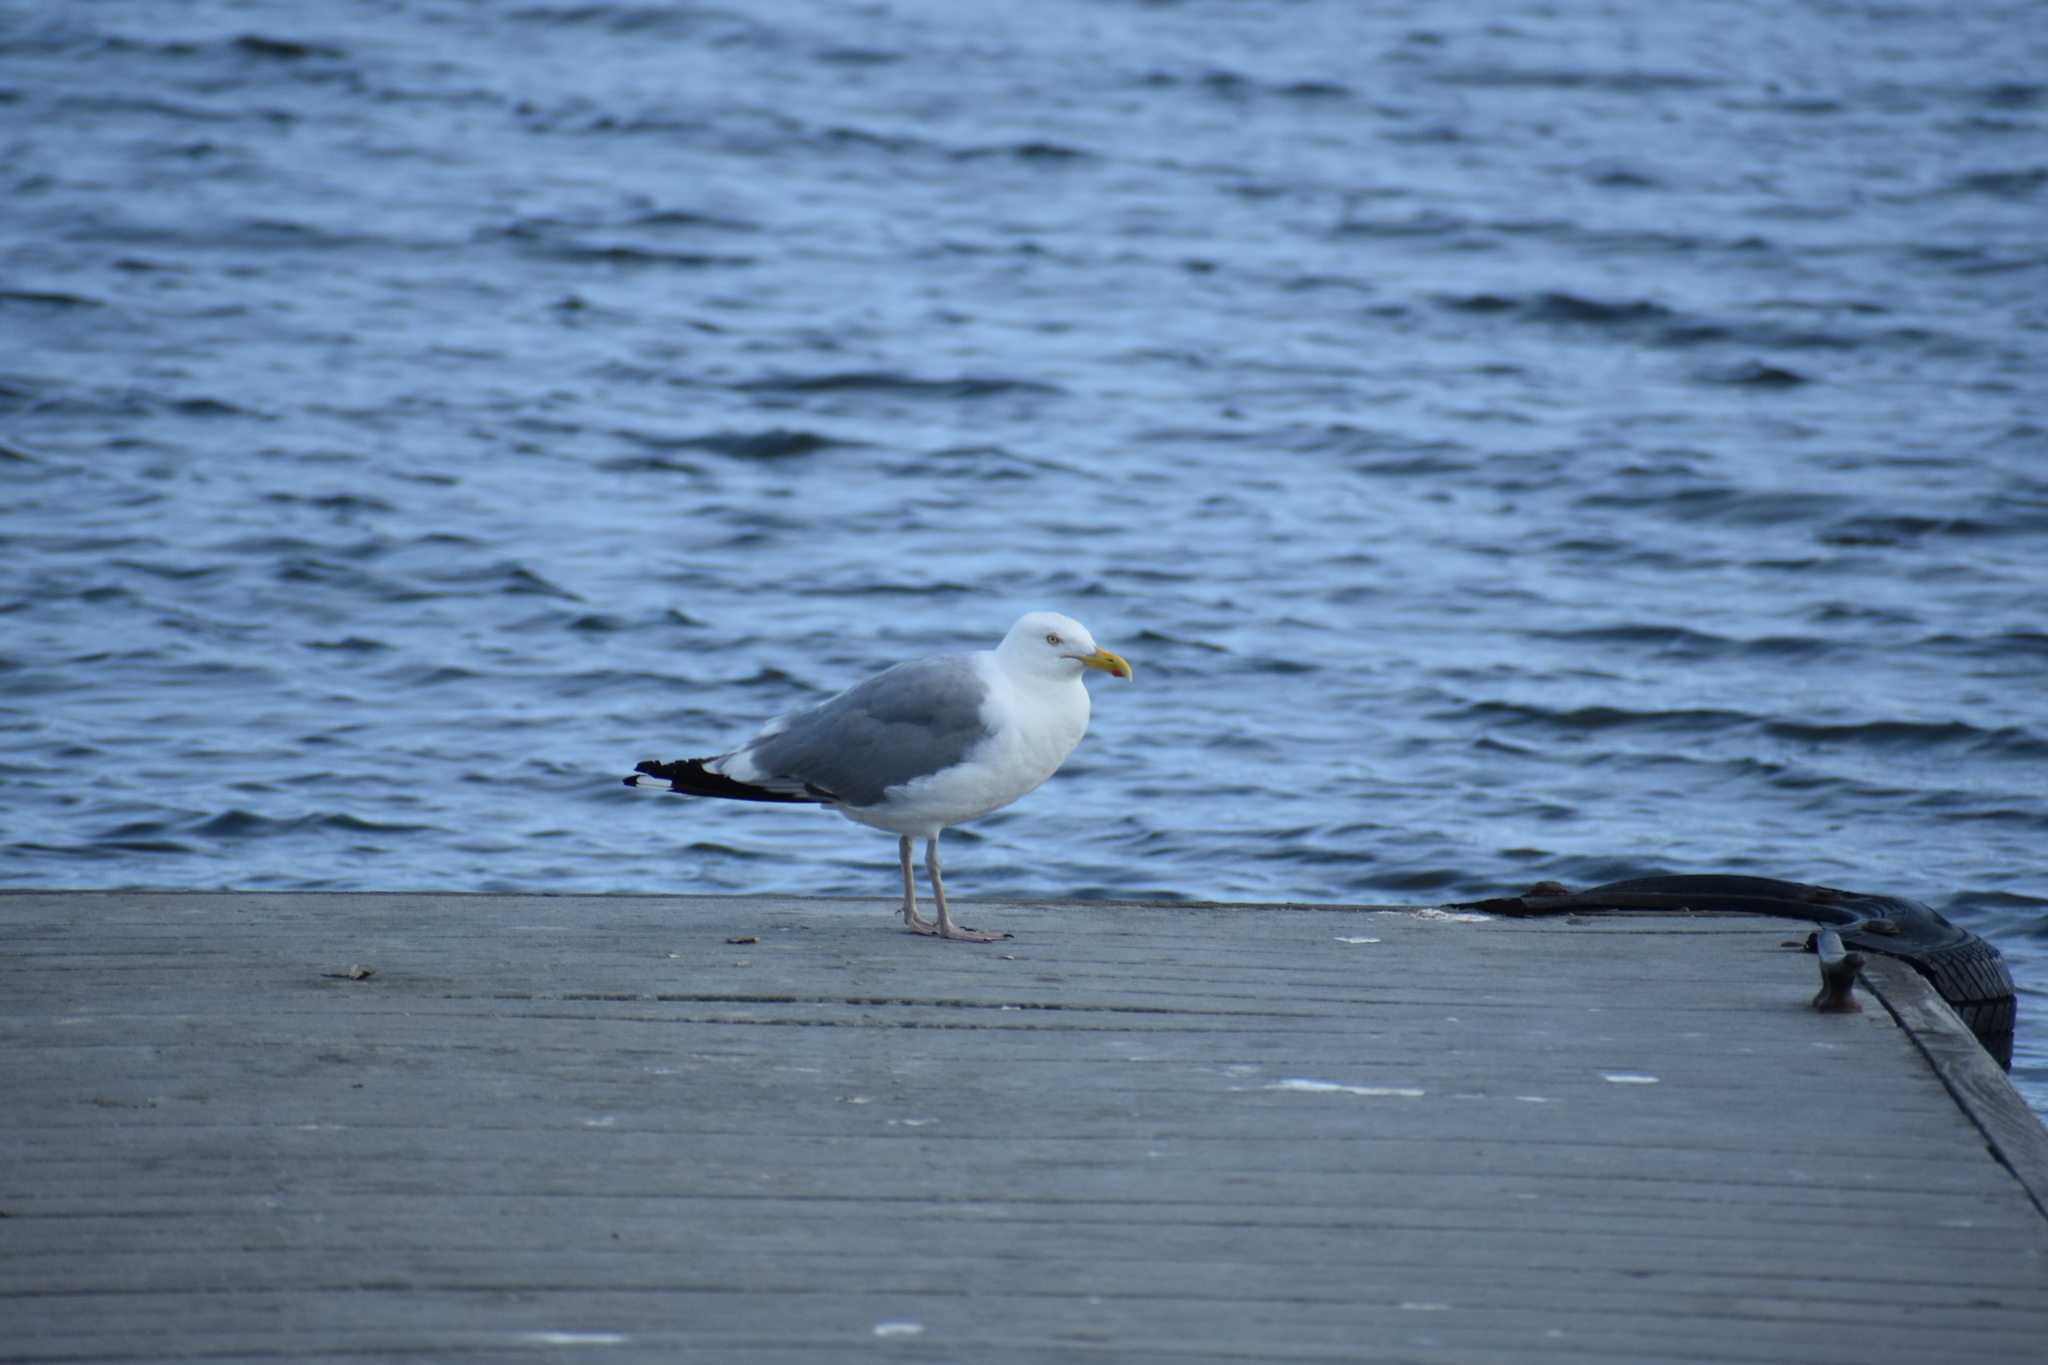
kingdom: Animalia
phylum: Chordata
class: Aves
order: Charadriiformes
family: Laridae
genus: Larus
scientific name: Larus argentatus
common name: Herring gull
